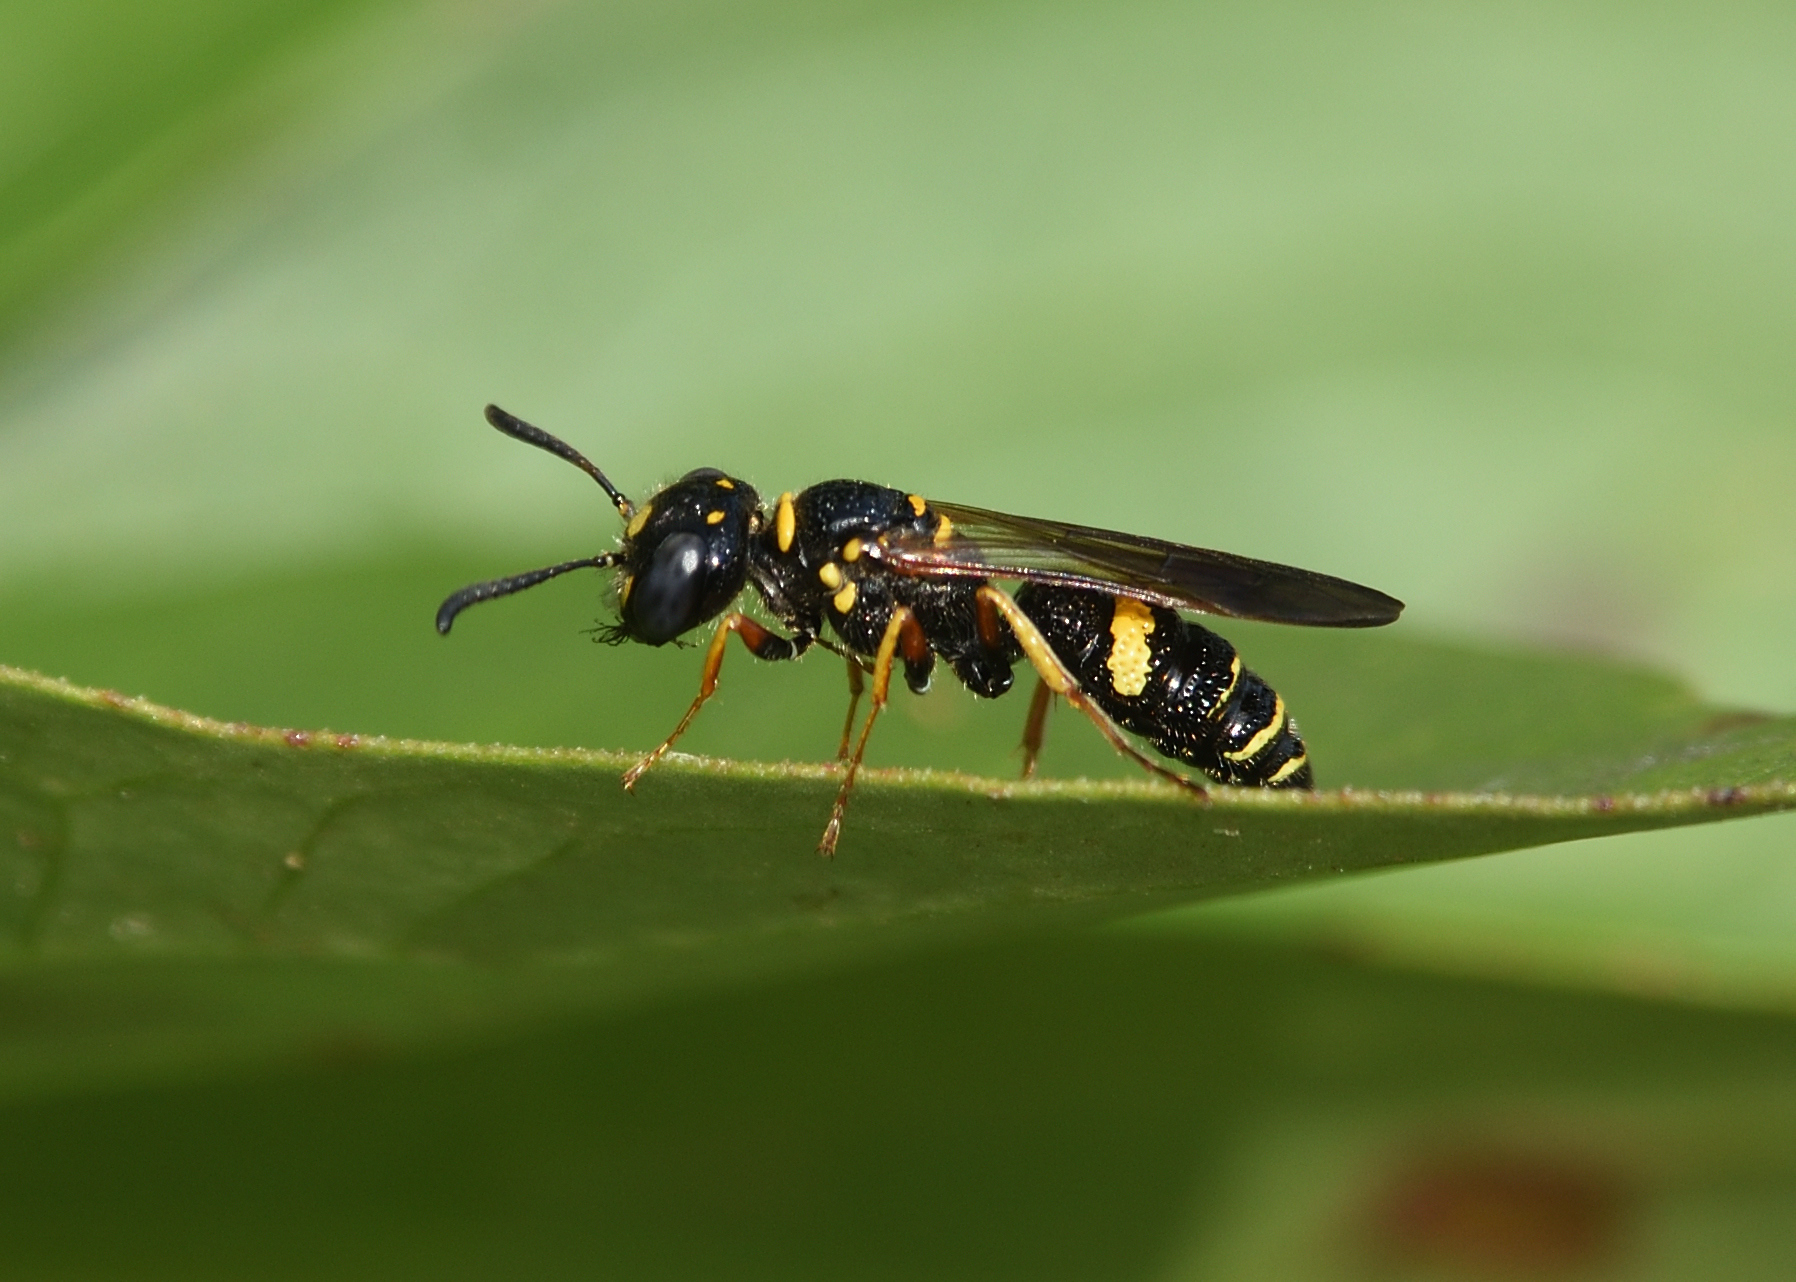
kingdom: Animalia
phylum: Arthropoda
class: Insecta
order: Hymenoptera
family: Crabronidae
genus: Philanthus
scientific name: Philanthus gibbosus
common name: Humped beewolf
